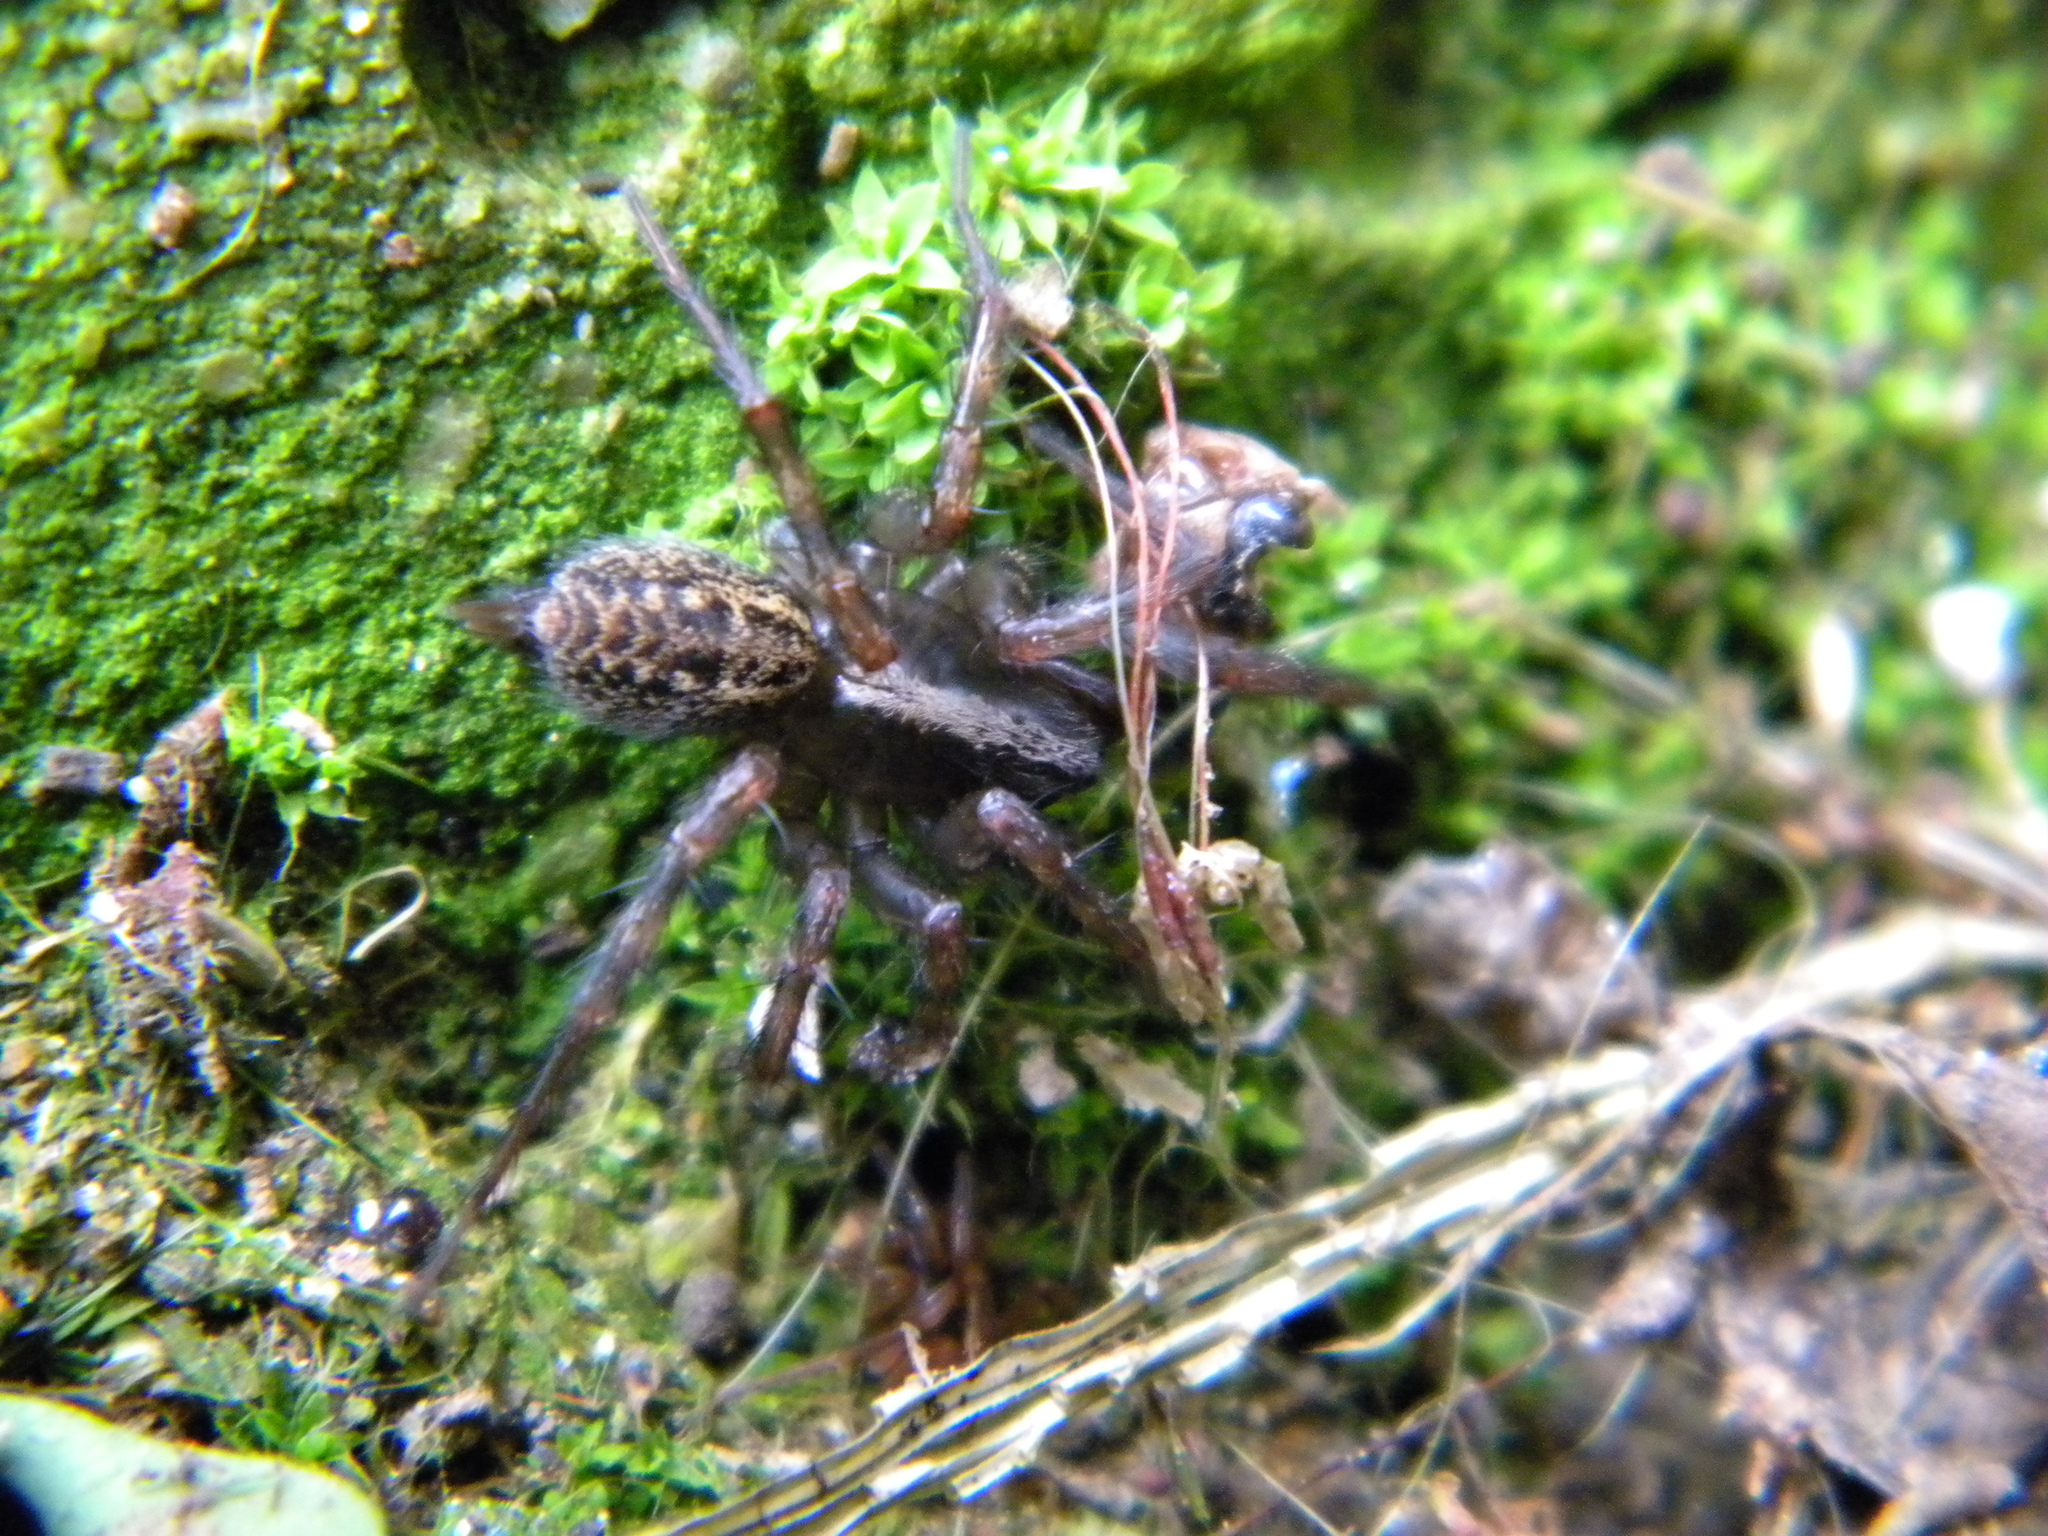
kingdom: Animalia
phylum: Arthropoda
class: Arachnida
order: Araneae
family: Agelenidae
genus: Maimuna
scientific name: Maimuna vestita
